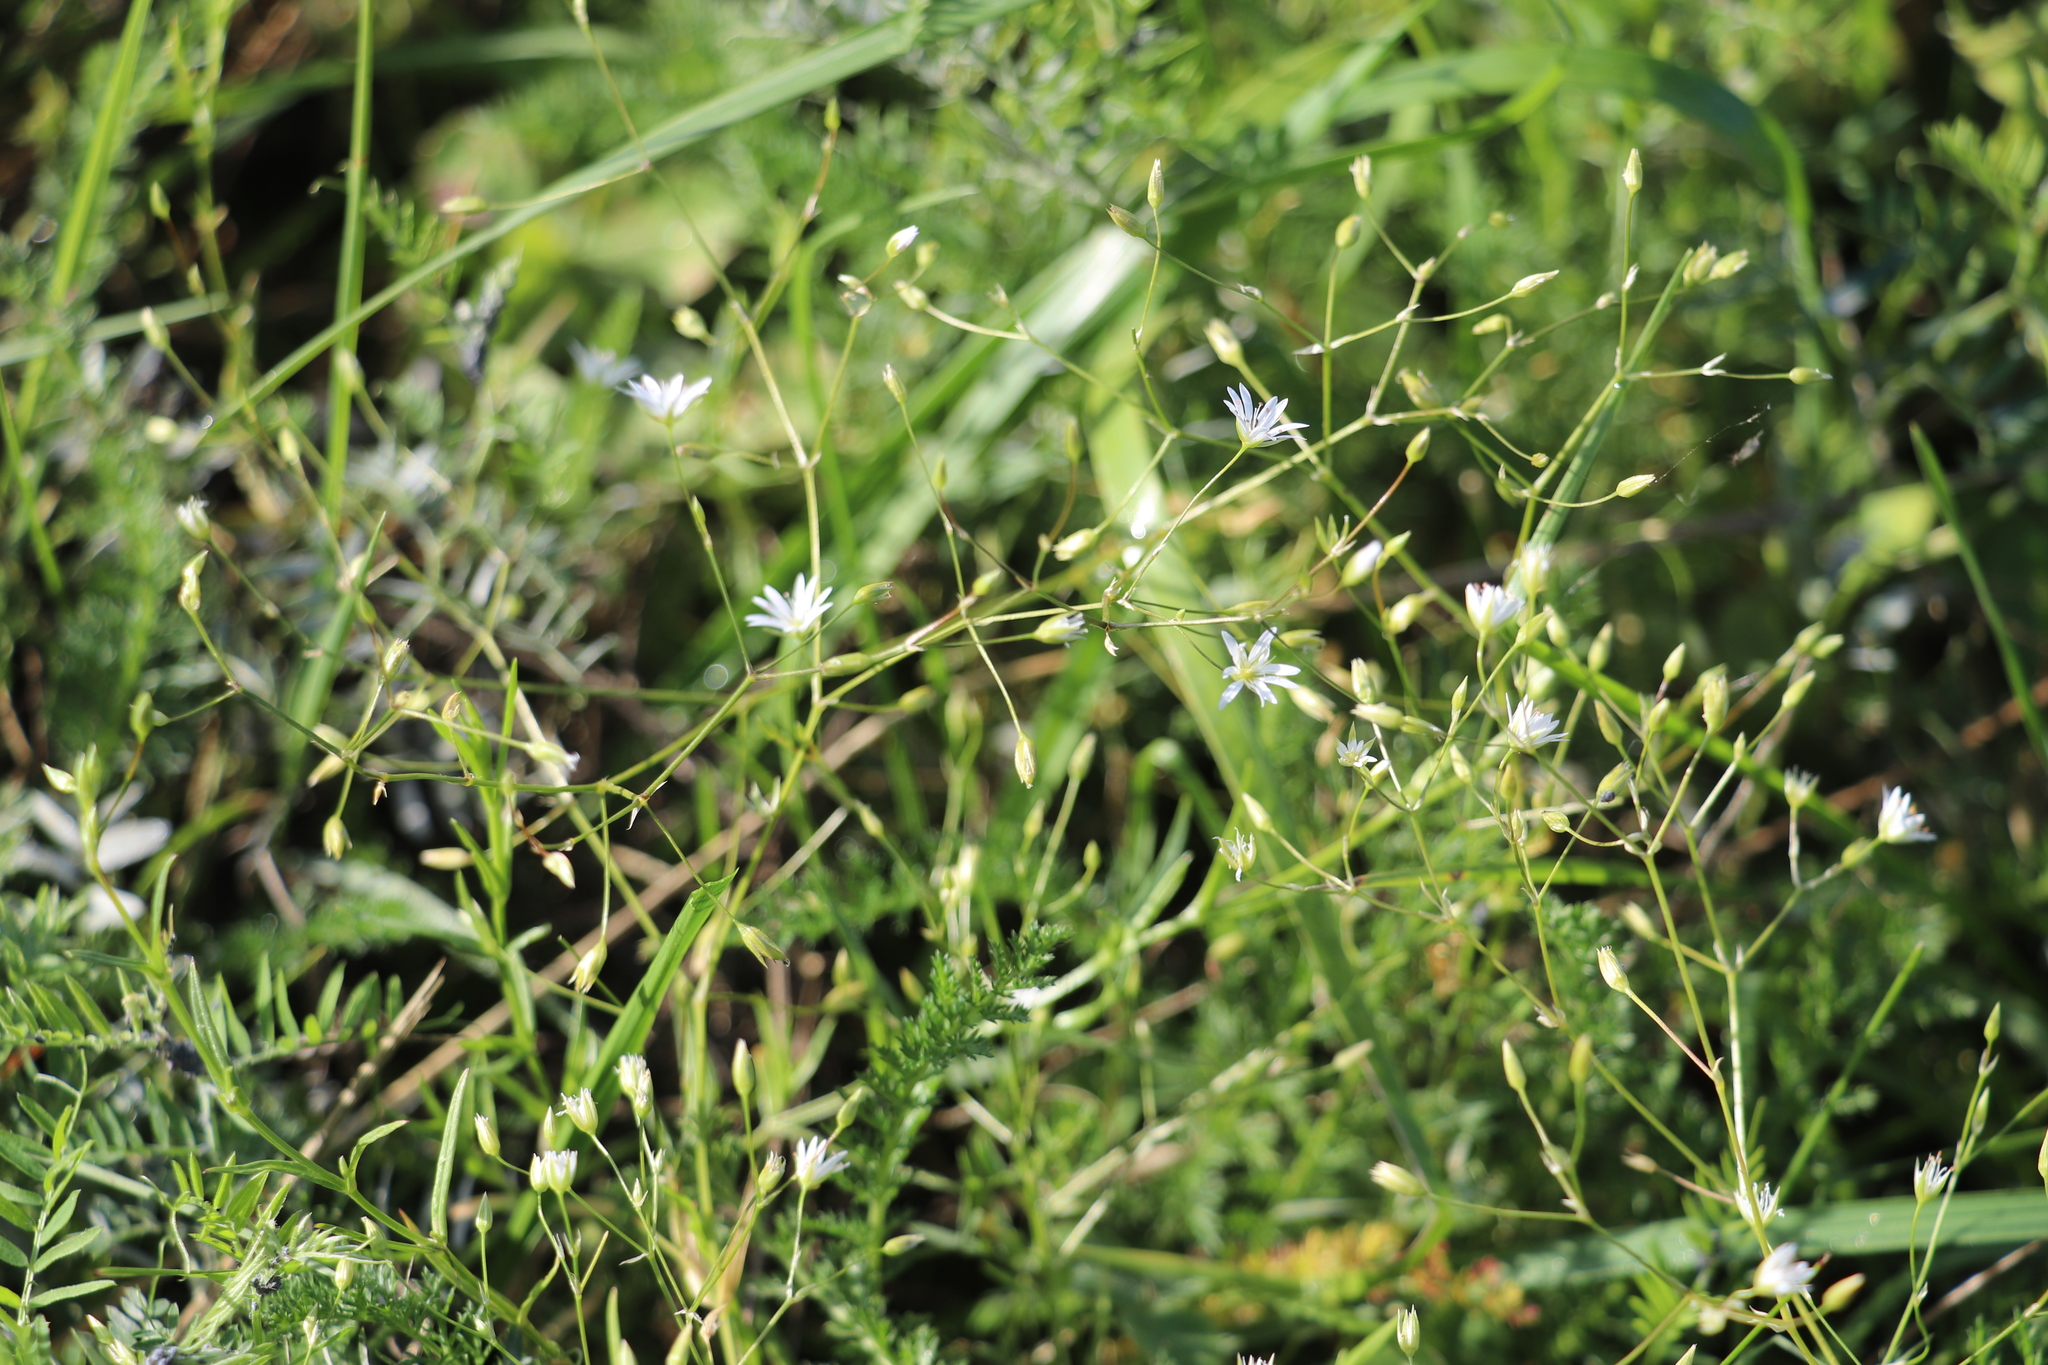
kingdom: Plantae
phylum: Tracheophyta
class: Magnoliopsida
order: Caryophyllales
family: Caryophyllaceae
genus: Stellaria
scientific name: Stellaria graminea
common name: Grass-like starwort
